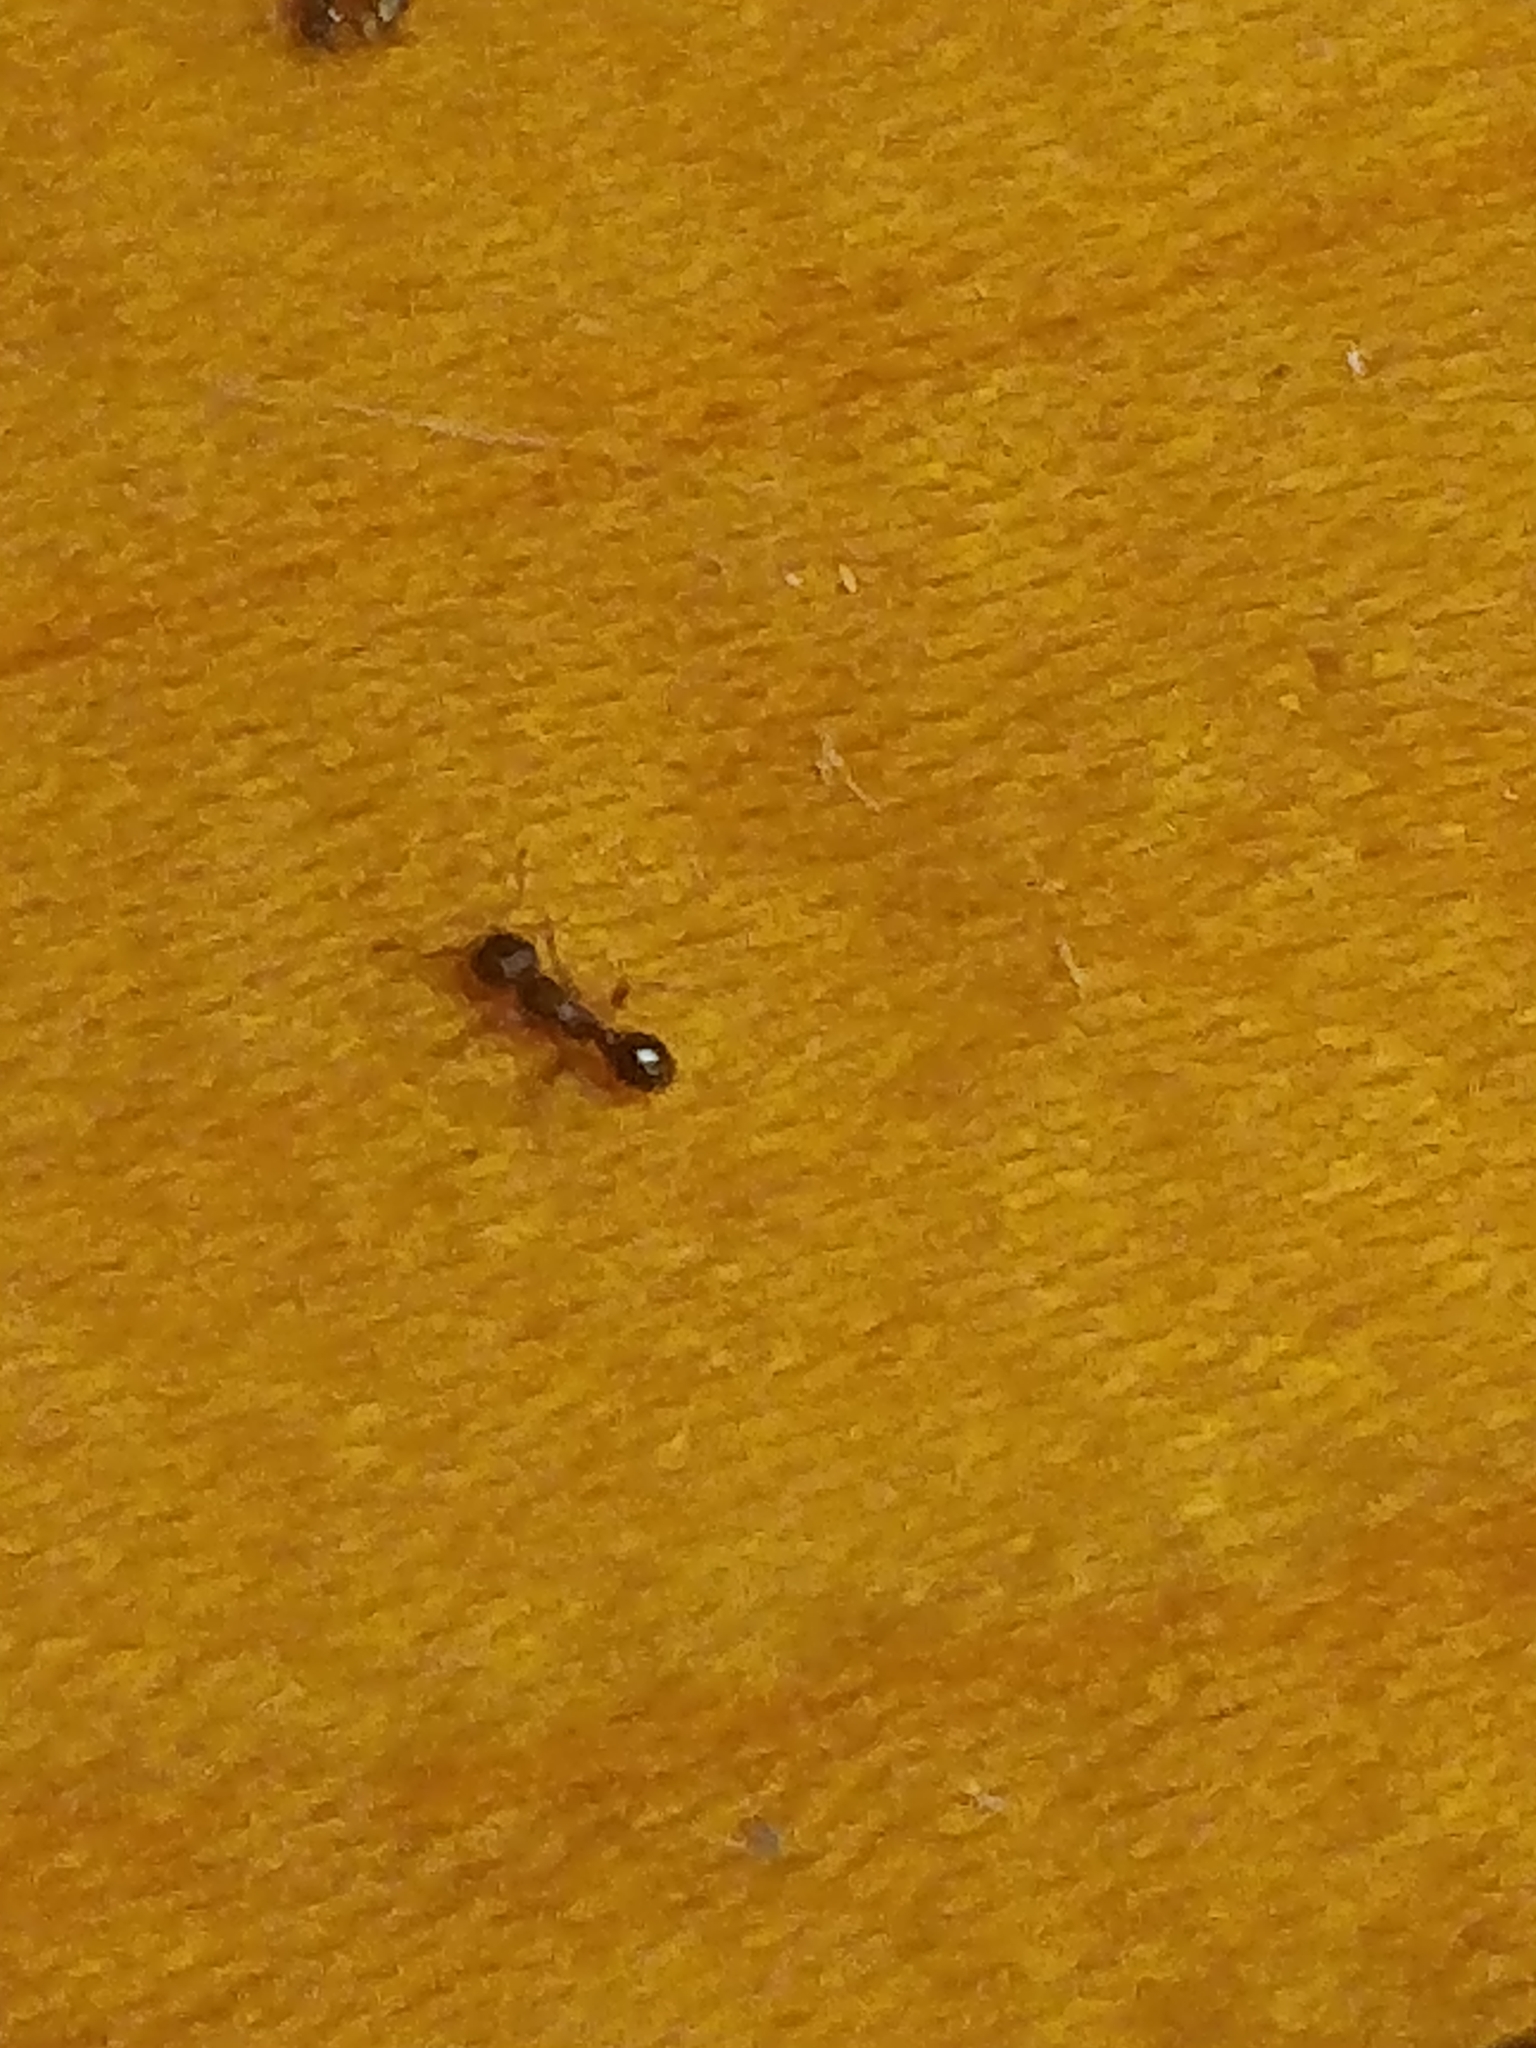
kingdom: Animalia
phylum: Arthropoda
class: Insecta
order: Hymenoptera
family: Formicidae
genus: Tetramorium
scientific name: Tetramorium immigrans
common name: Pavement ant
